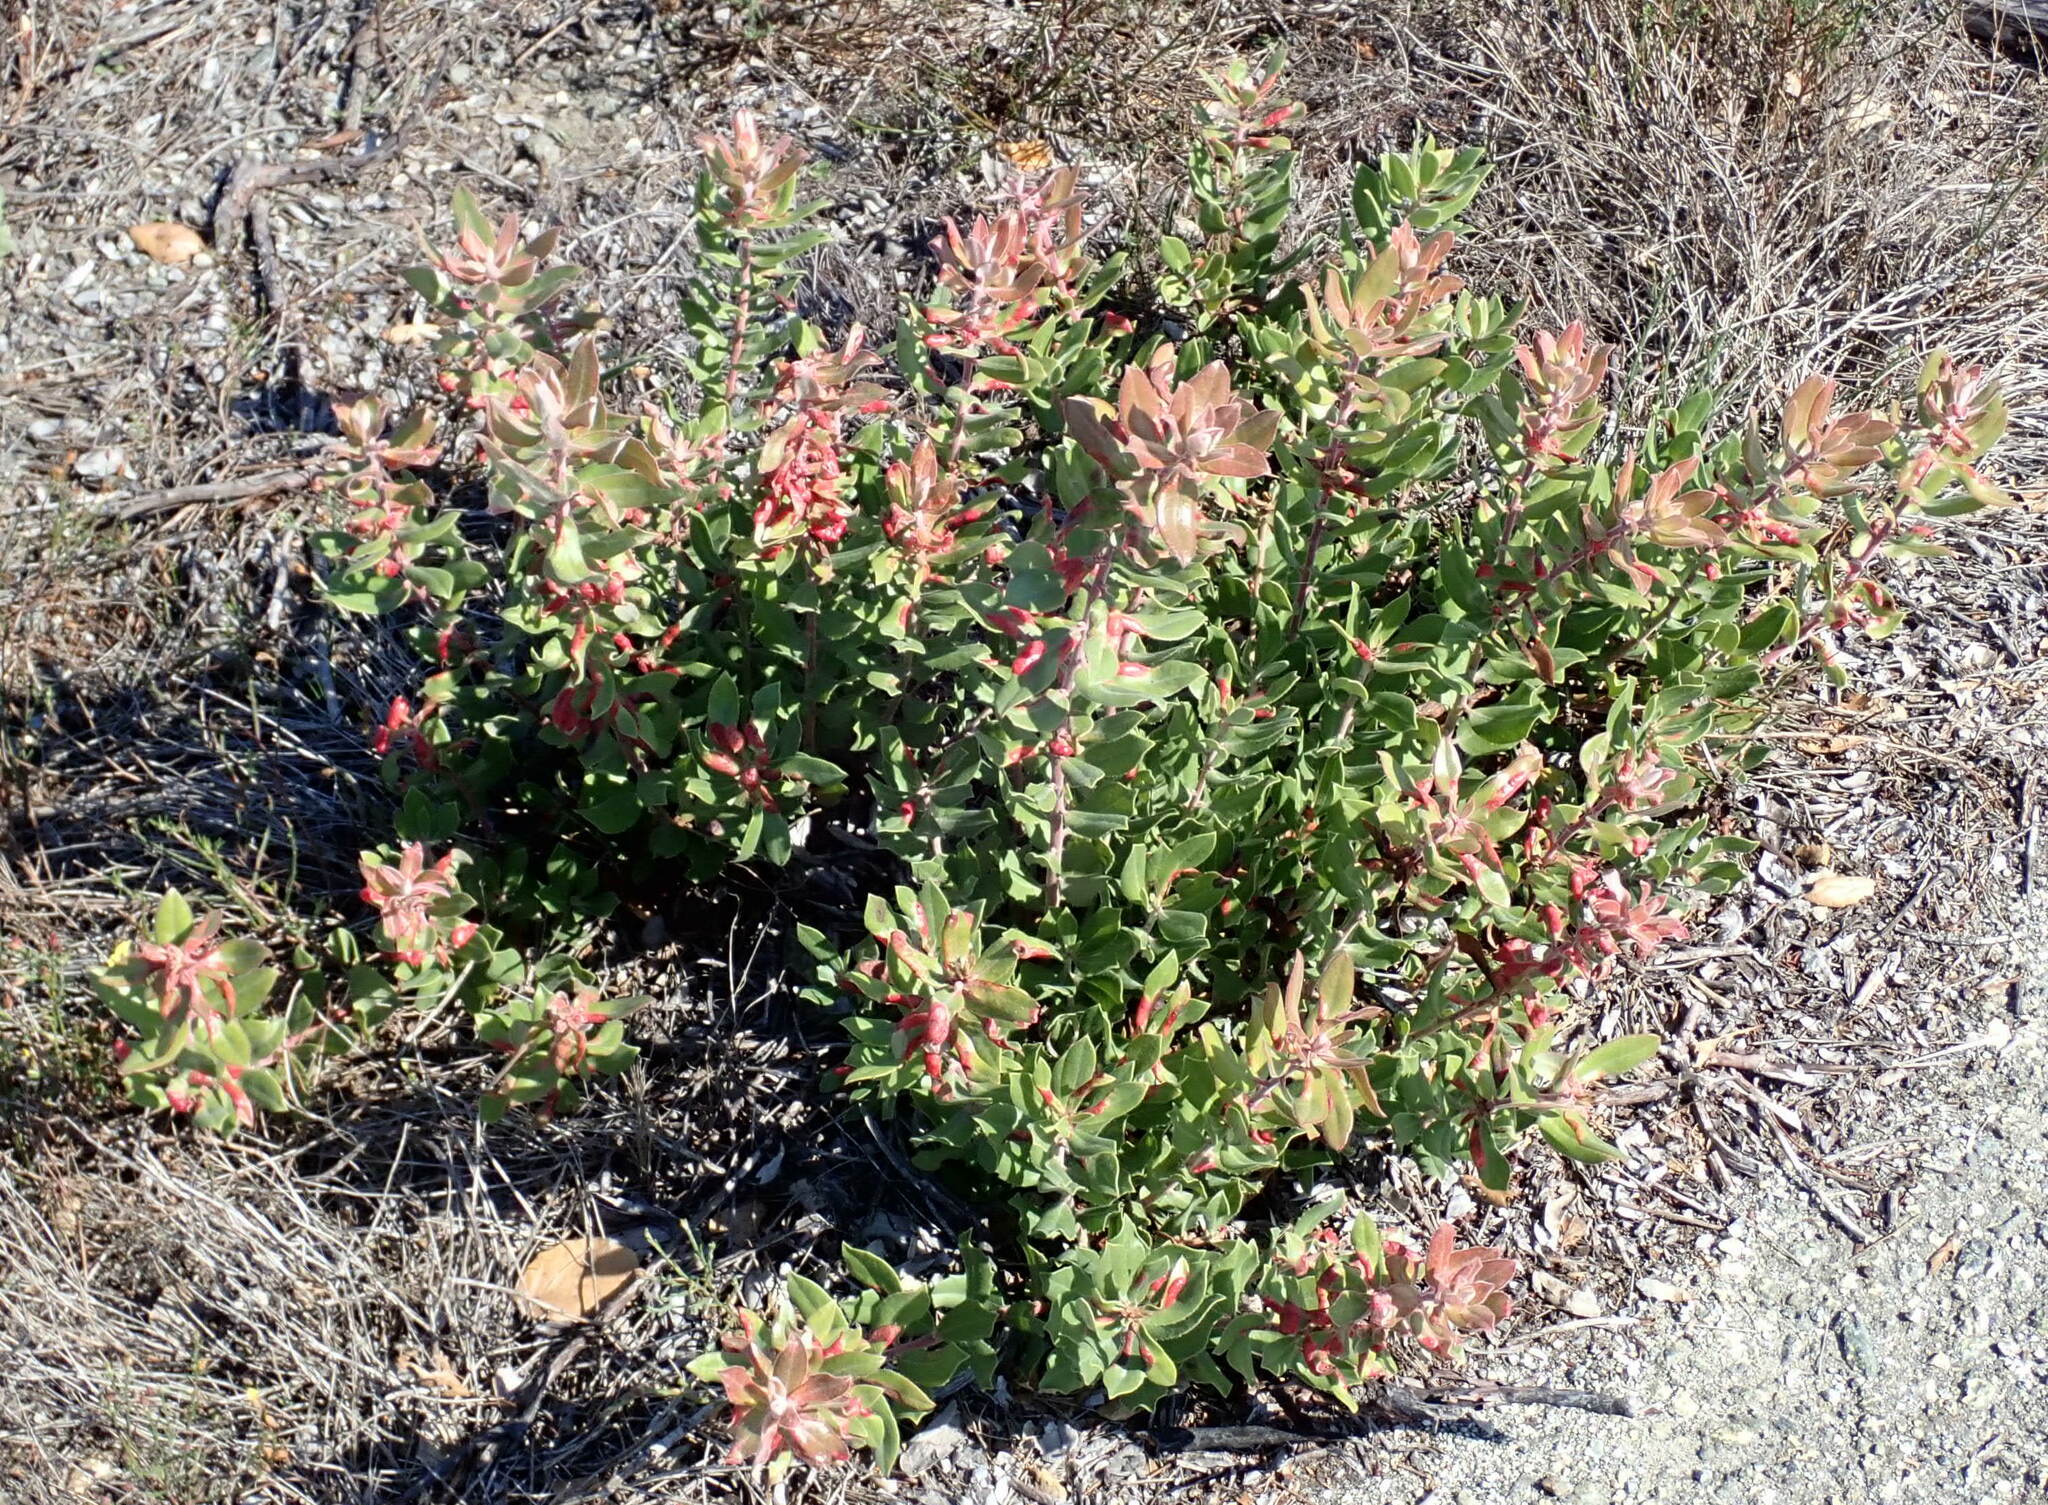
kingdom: Animalia
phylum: Arthropoda
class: Insecta
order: Hymenoptera
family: Formicidae
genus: Linepithema
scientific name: Linepithema humile
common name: Argentine ant
